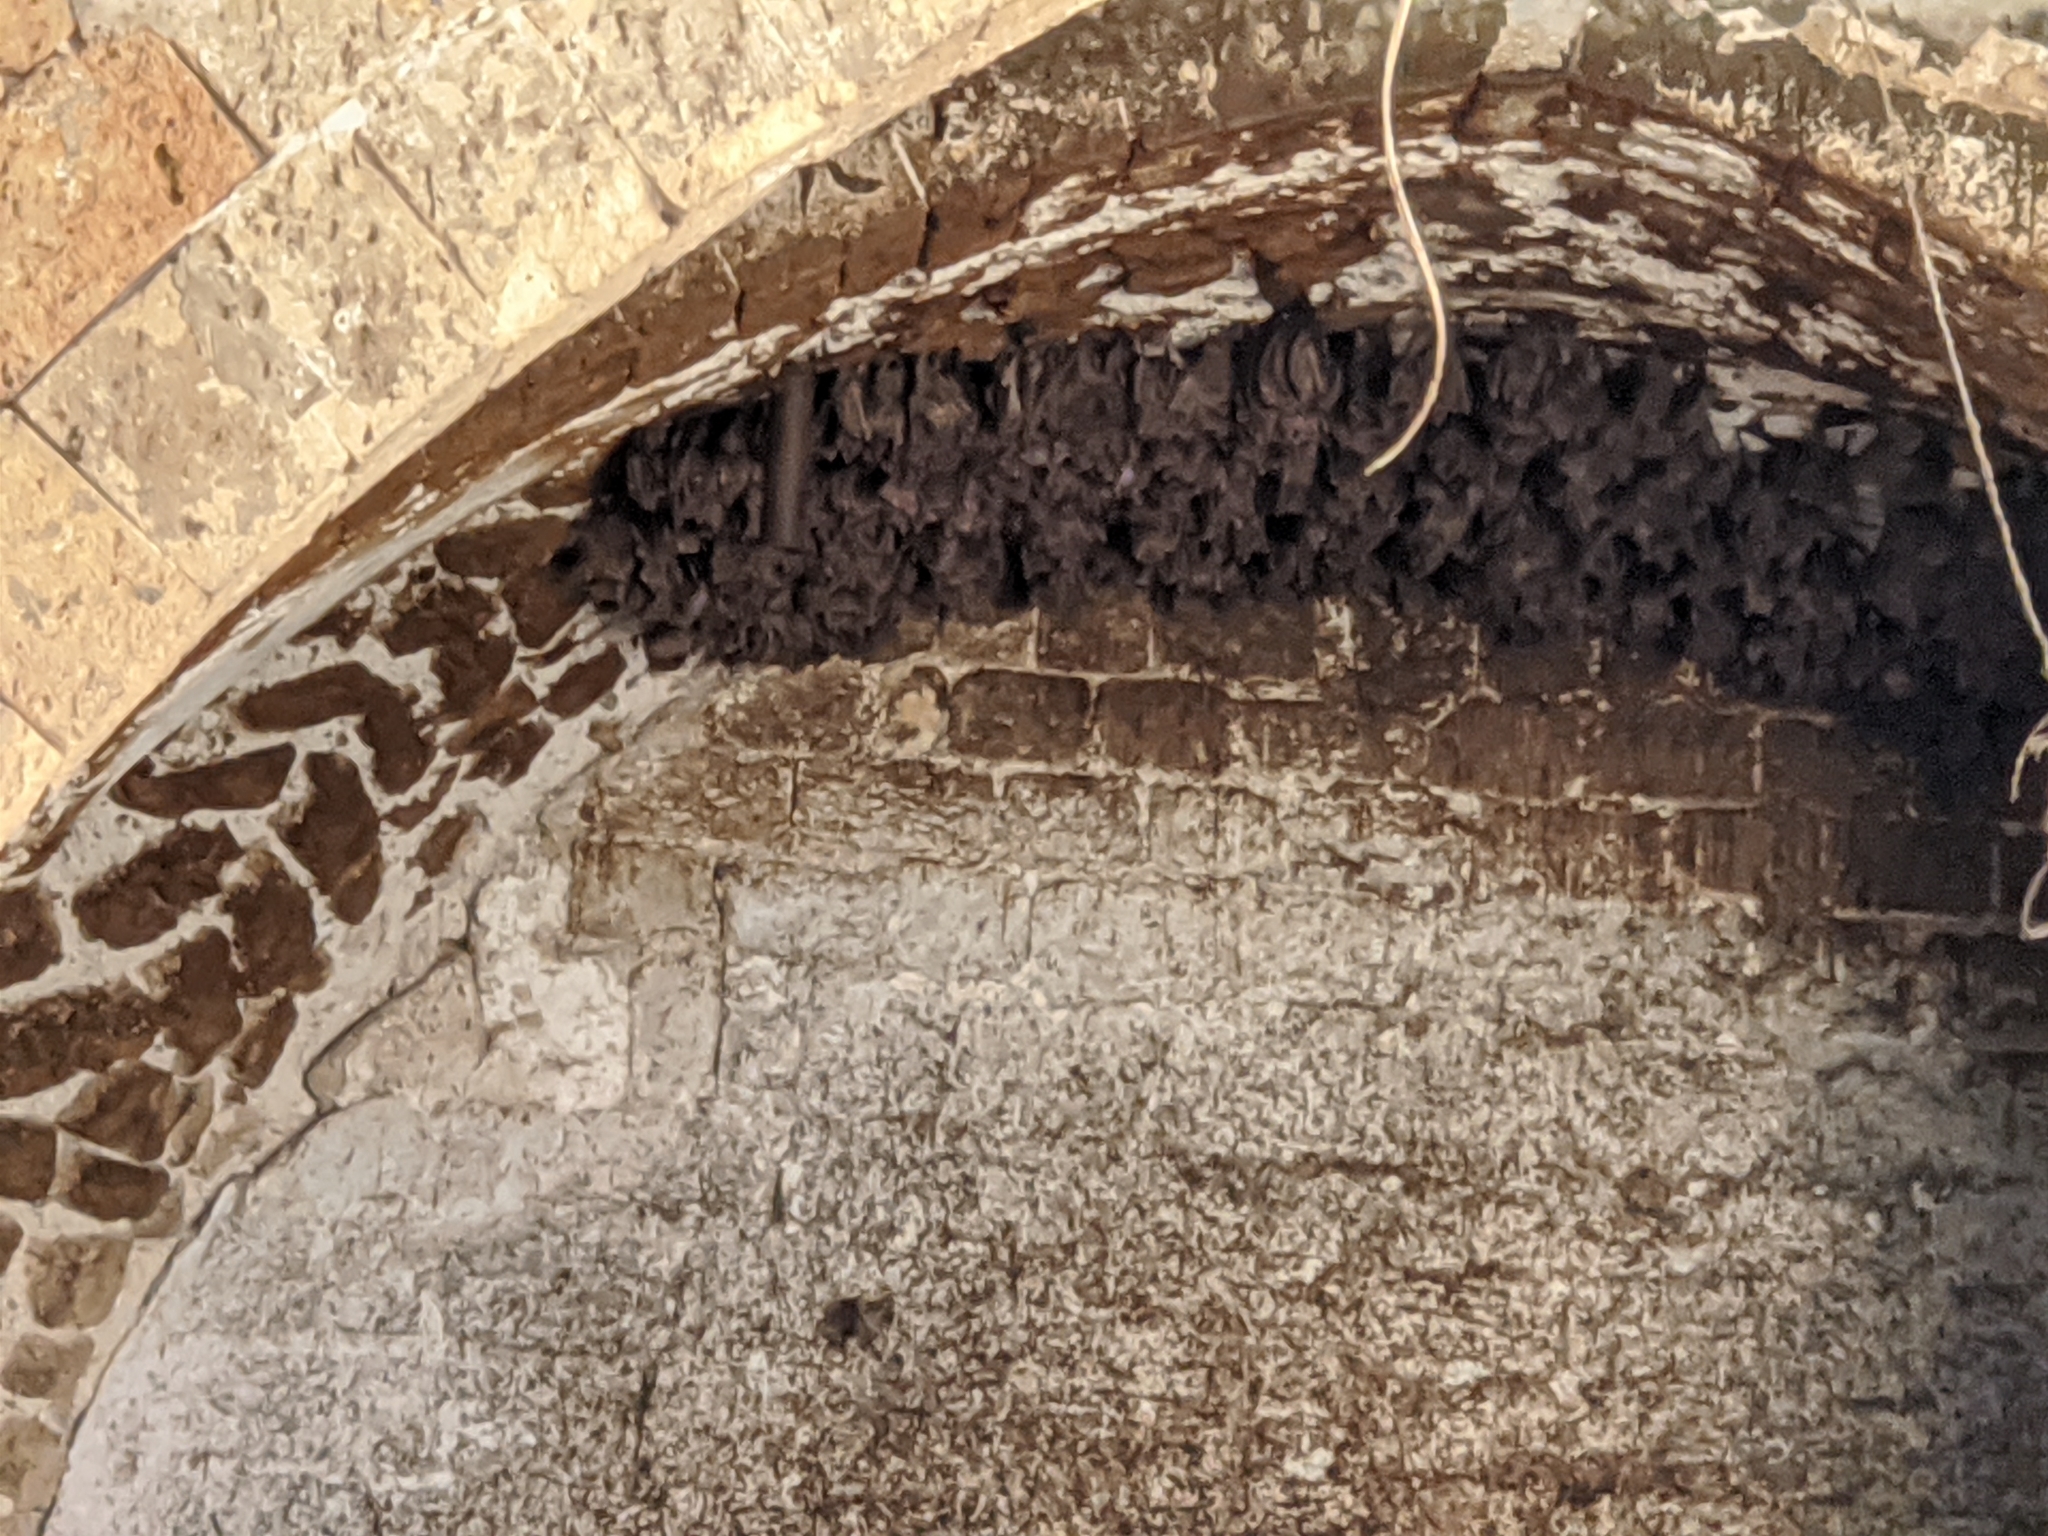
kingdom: Animalia
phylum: Chordata
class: Mammalia
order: Chiroptera
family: Pteropodidae
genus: Rousettus
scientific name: Rousettus aegyptiacus
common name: Egyptian rousette
